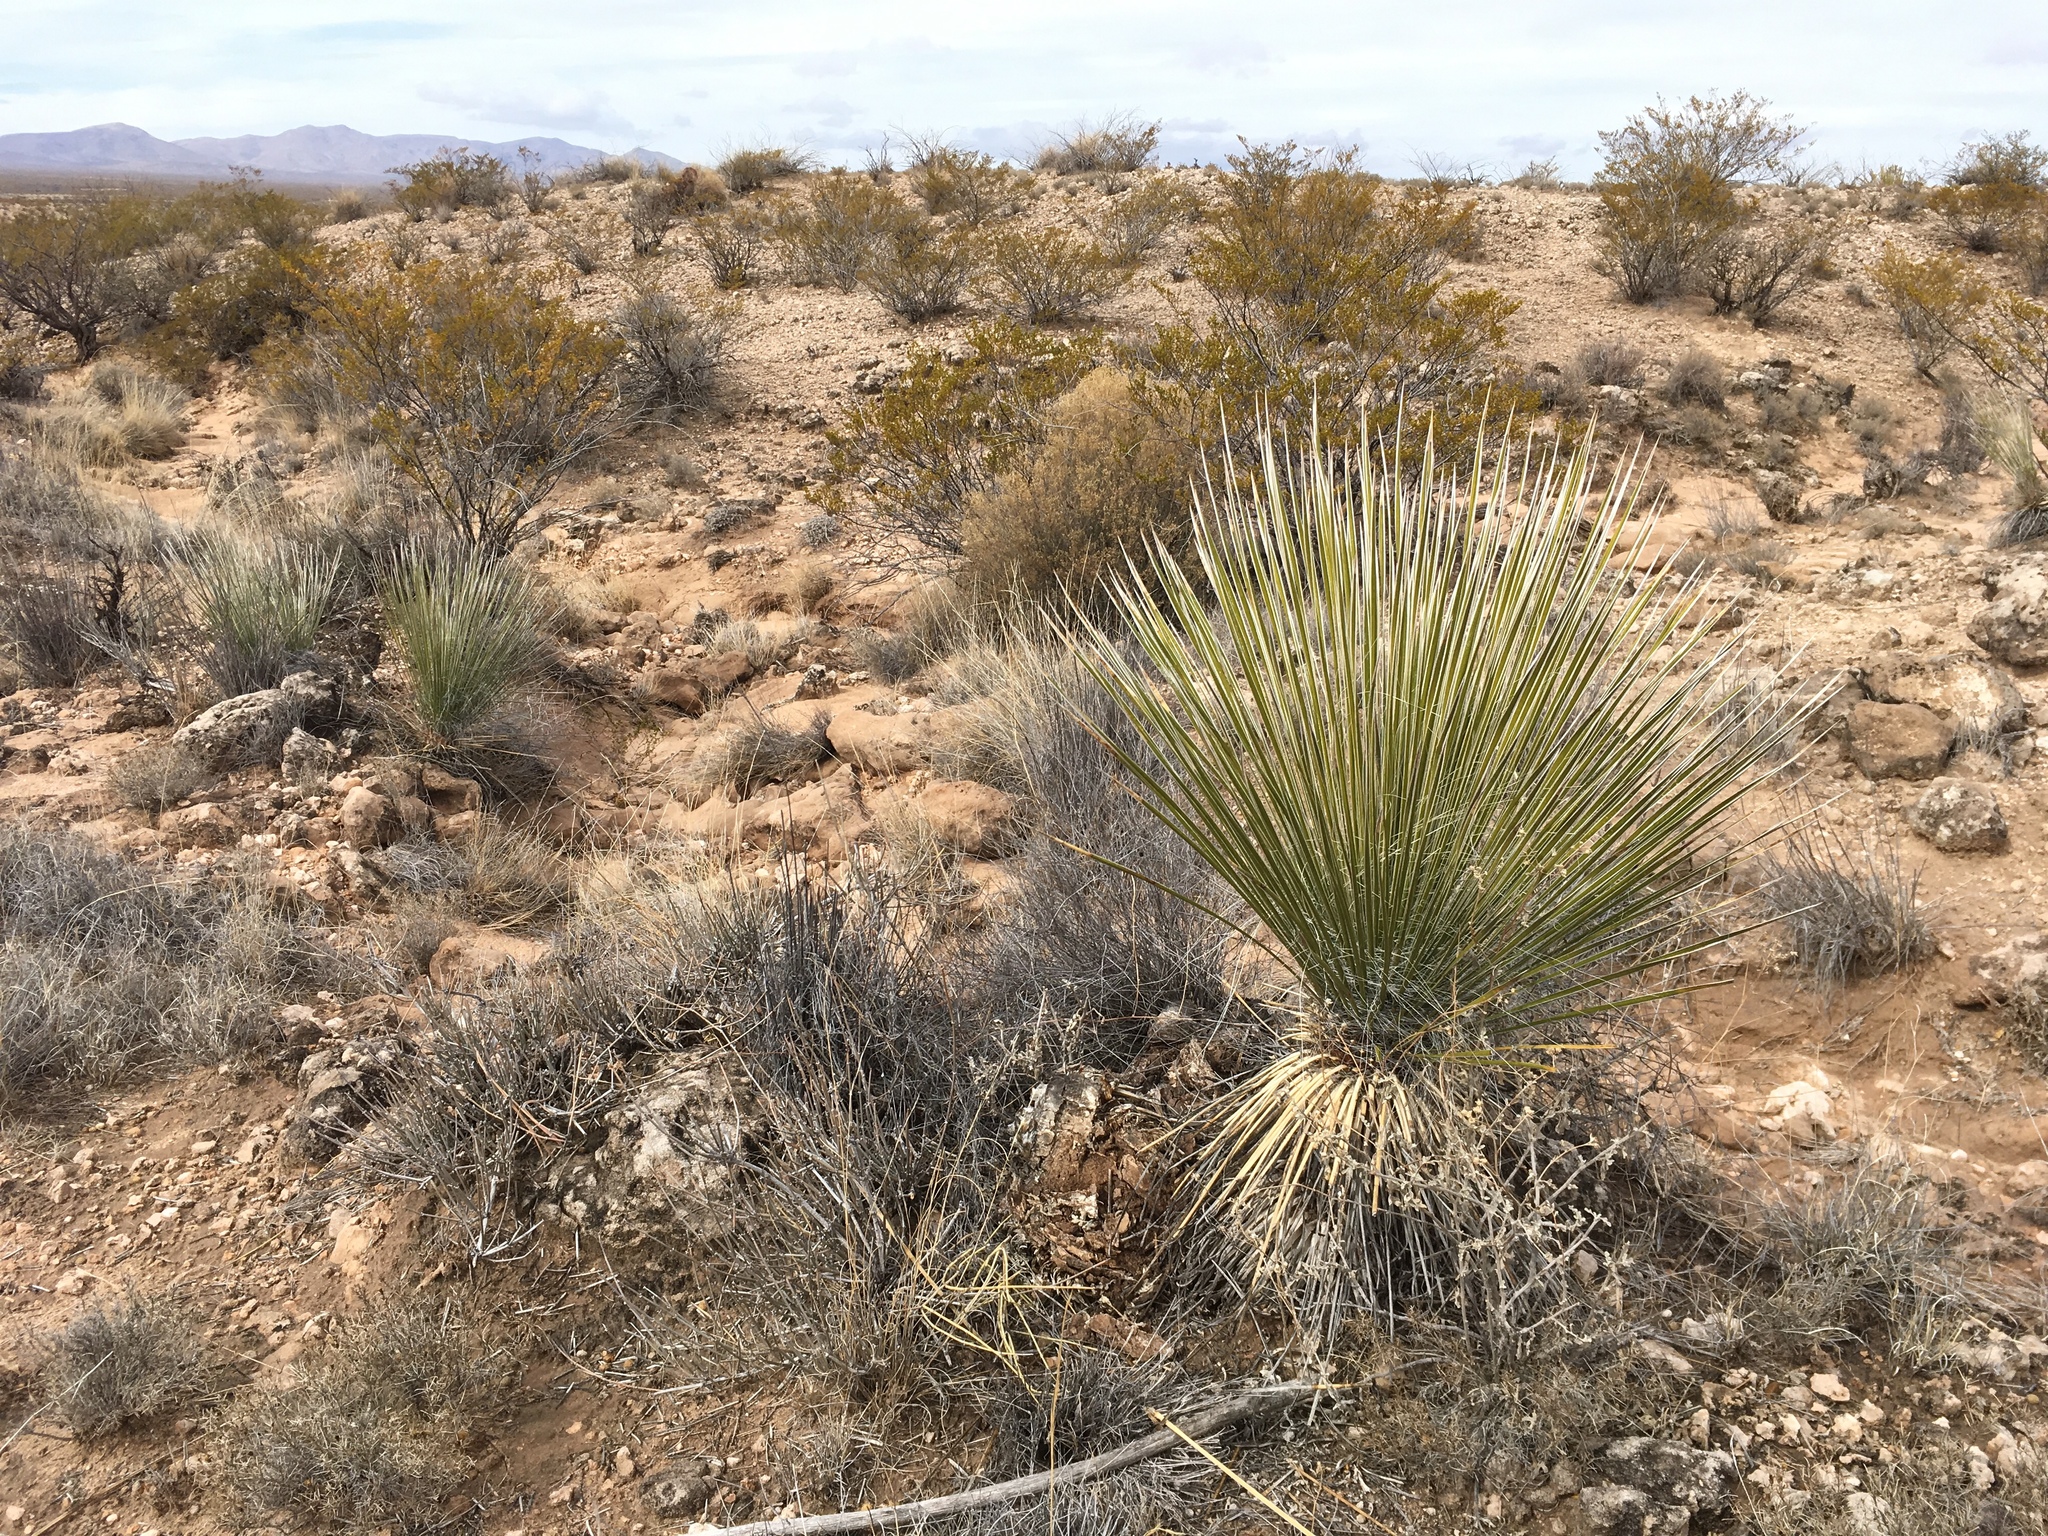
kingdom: Plantae
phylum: Tracheophyta
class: Liliopsida
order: Asparagales
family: Asparagaceae
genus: Yucca
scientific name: Yucca elata
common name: Palmella
